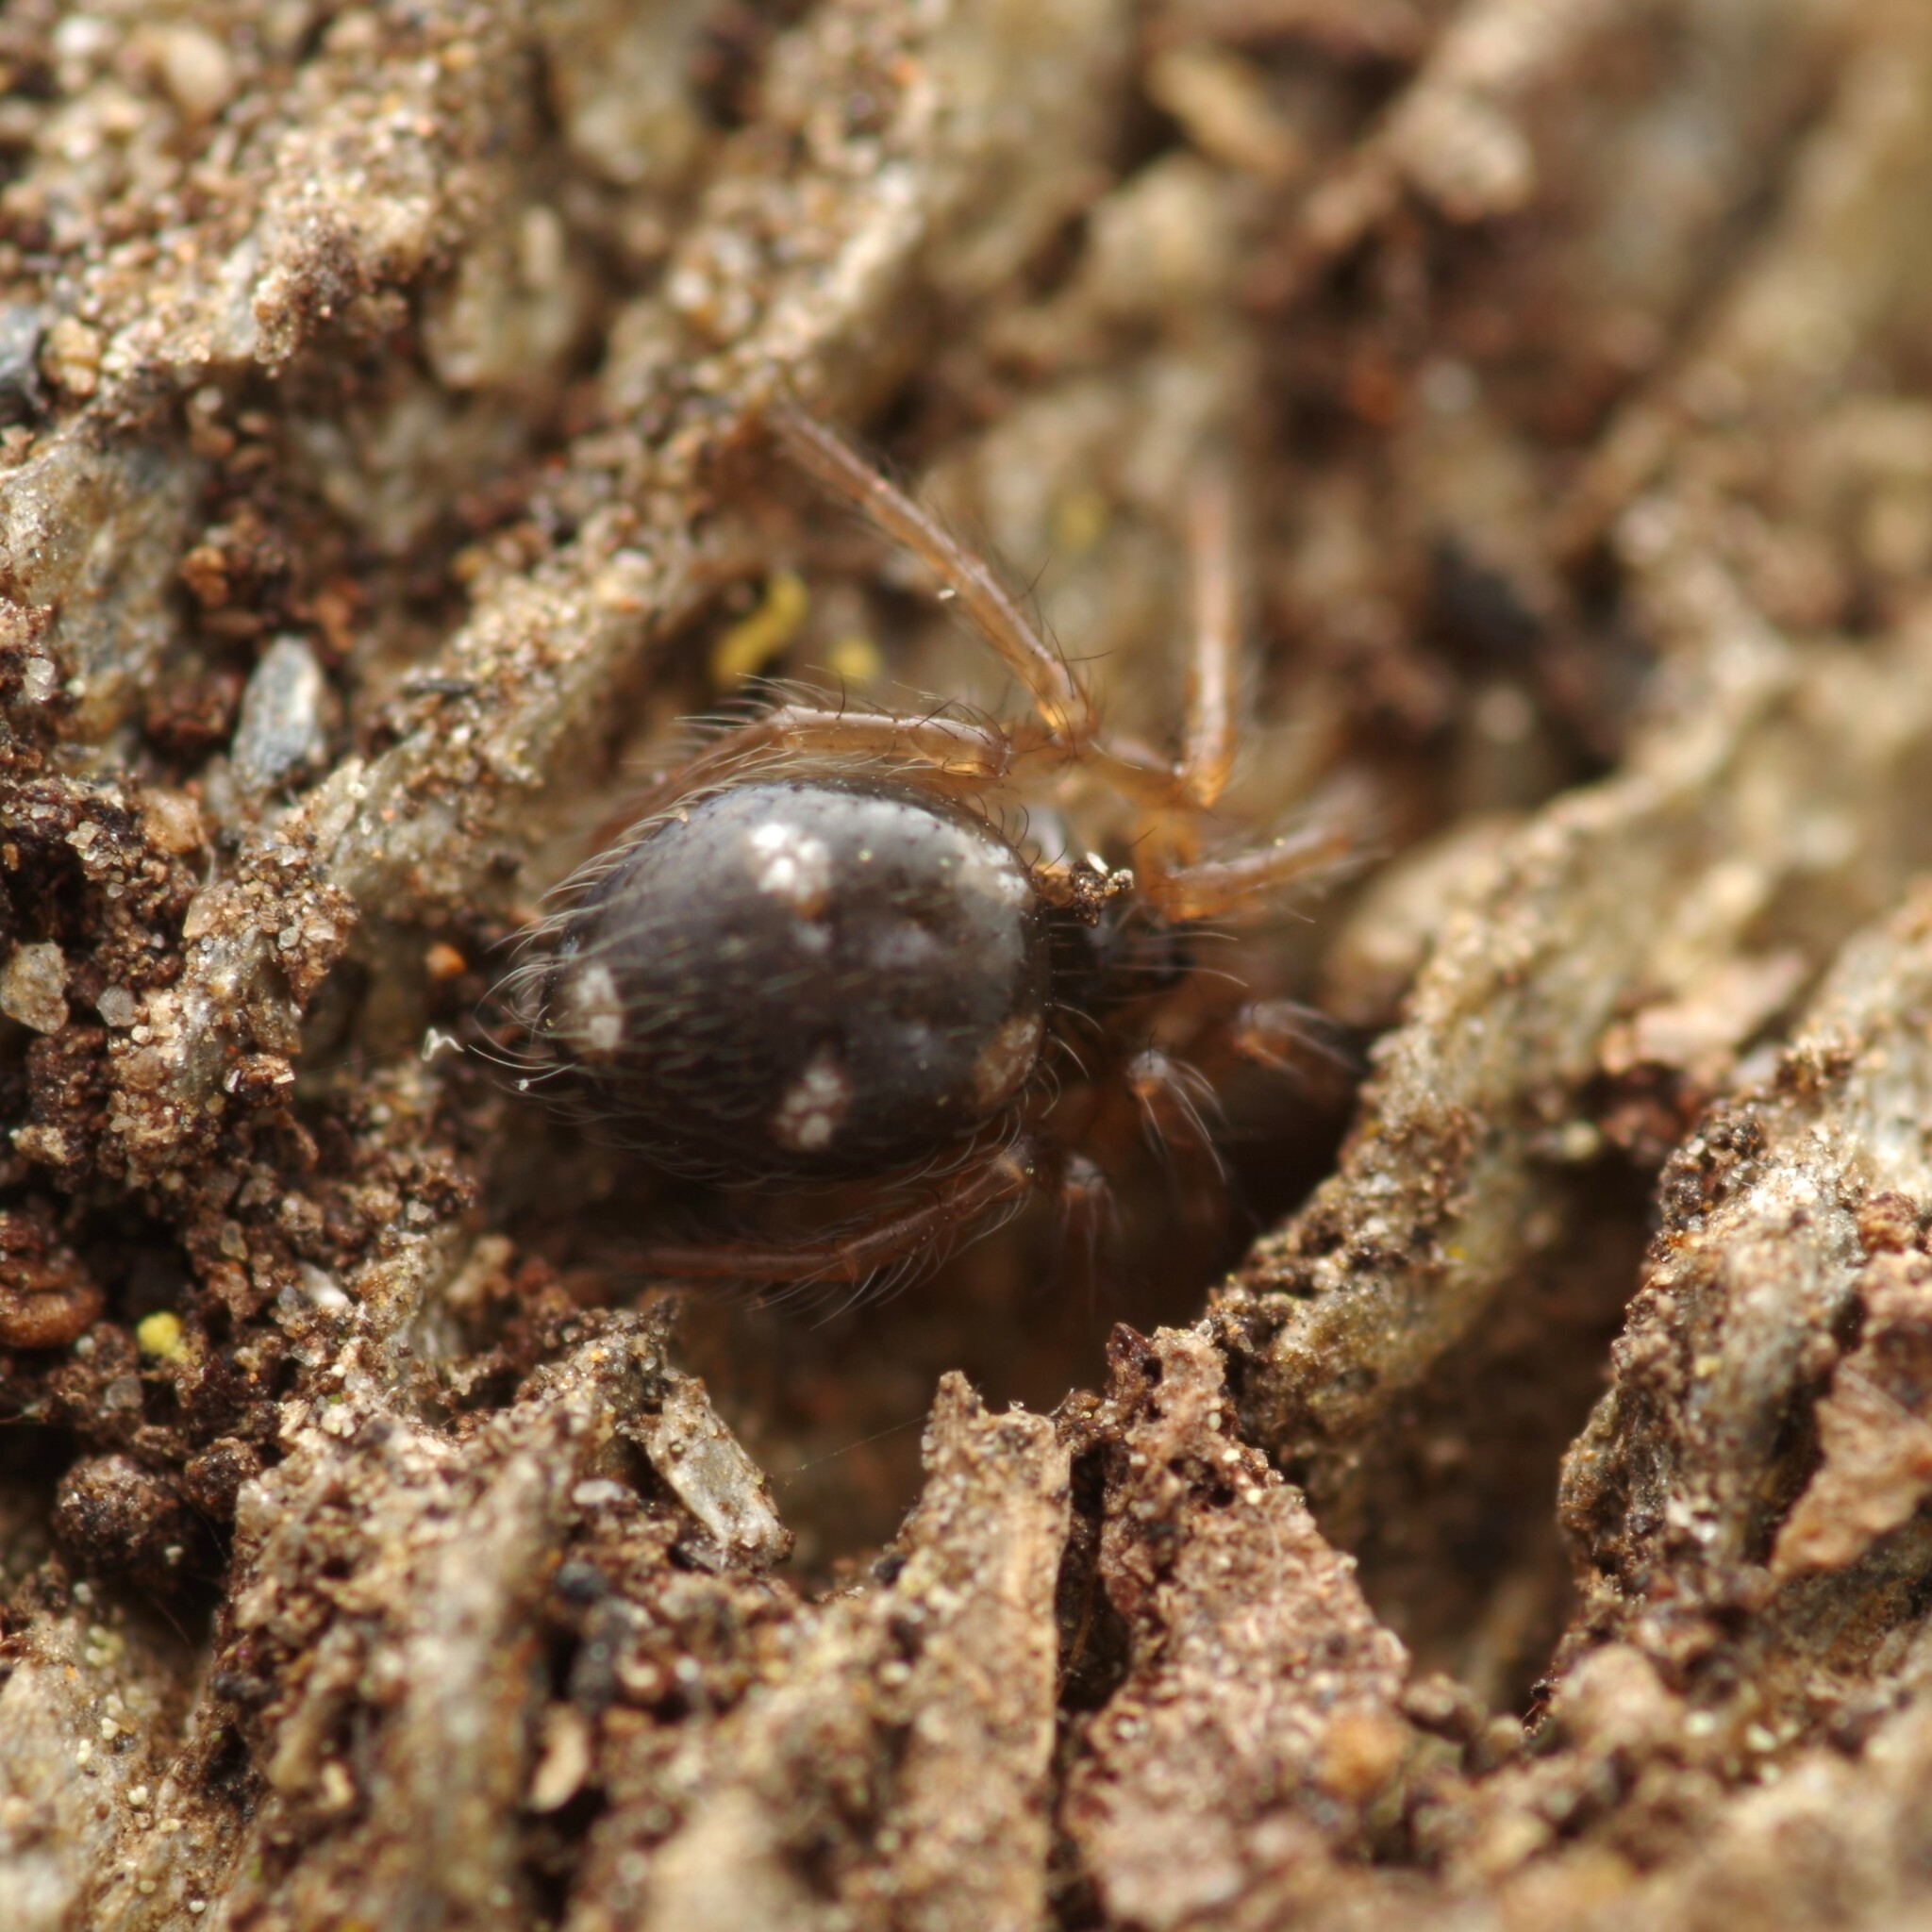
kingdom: Animalia
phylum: Arthropoda
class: Arachnida
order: Araneae
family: Oecobiidae
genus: Uroctea
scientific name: Uroctea durandi
